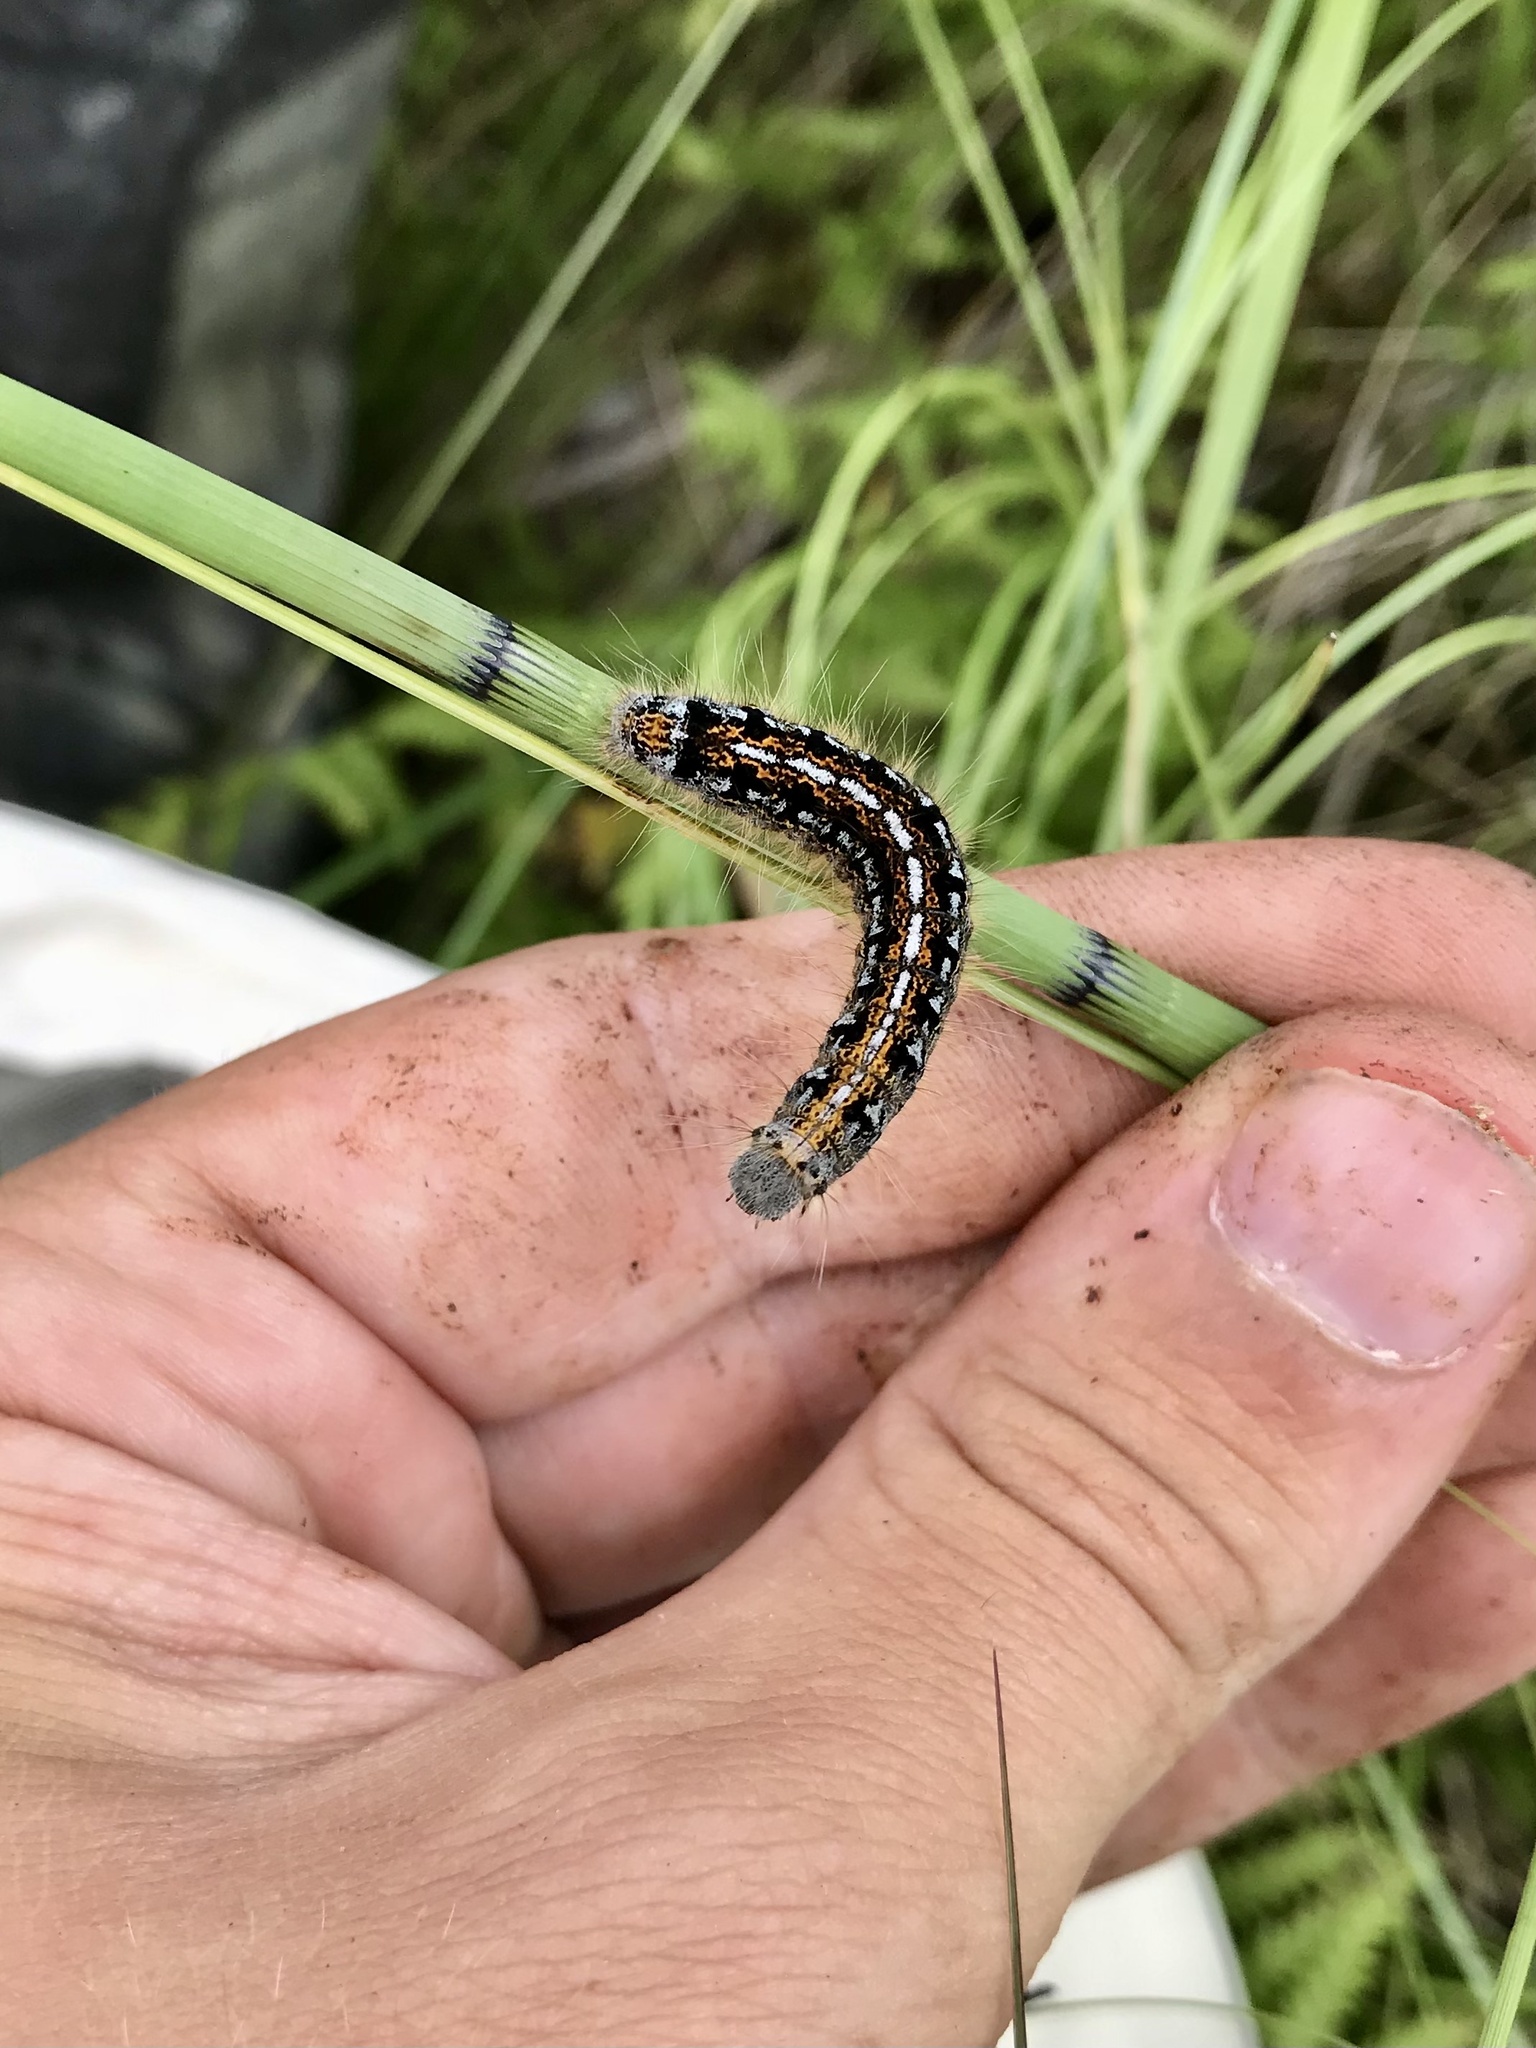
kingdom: Animalia
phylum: Arthropoda
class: Insecta
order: Lepidoptera
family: Lasiocampidae
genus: Malacosoma
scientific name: Malacosoma californica
